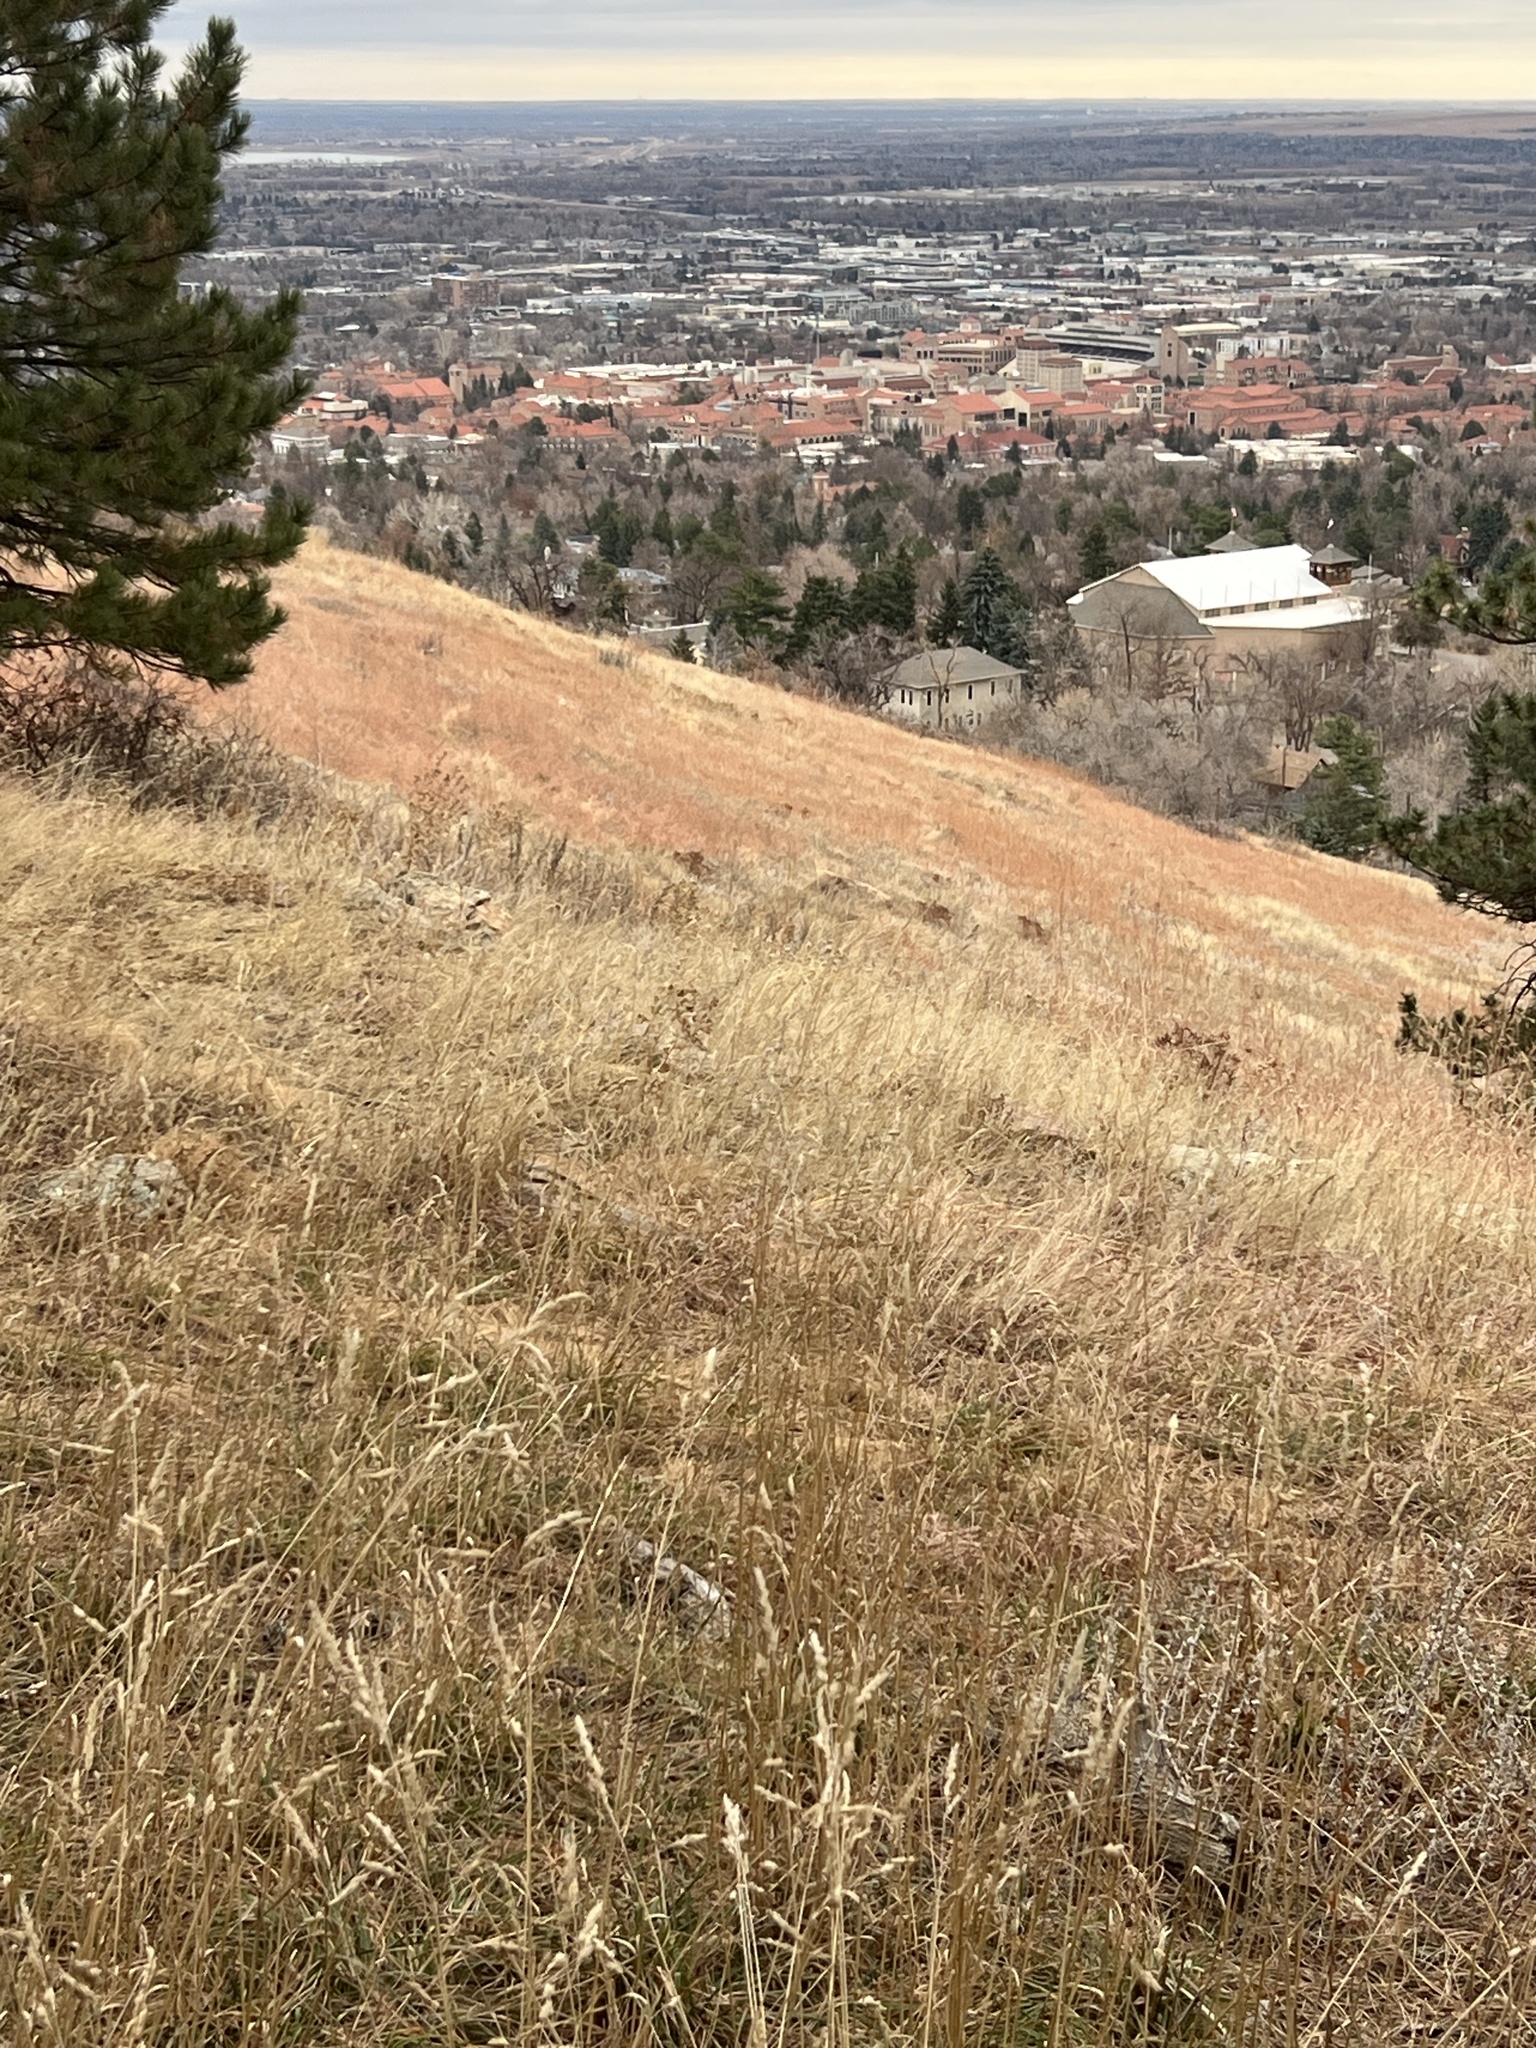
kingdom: Plantae
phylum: Tracheophyta
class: Liliopsida
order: Poales
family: Poaceae
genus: Andropogon
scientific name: Andropogon gerardi
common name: Big bluestem
